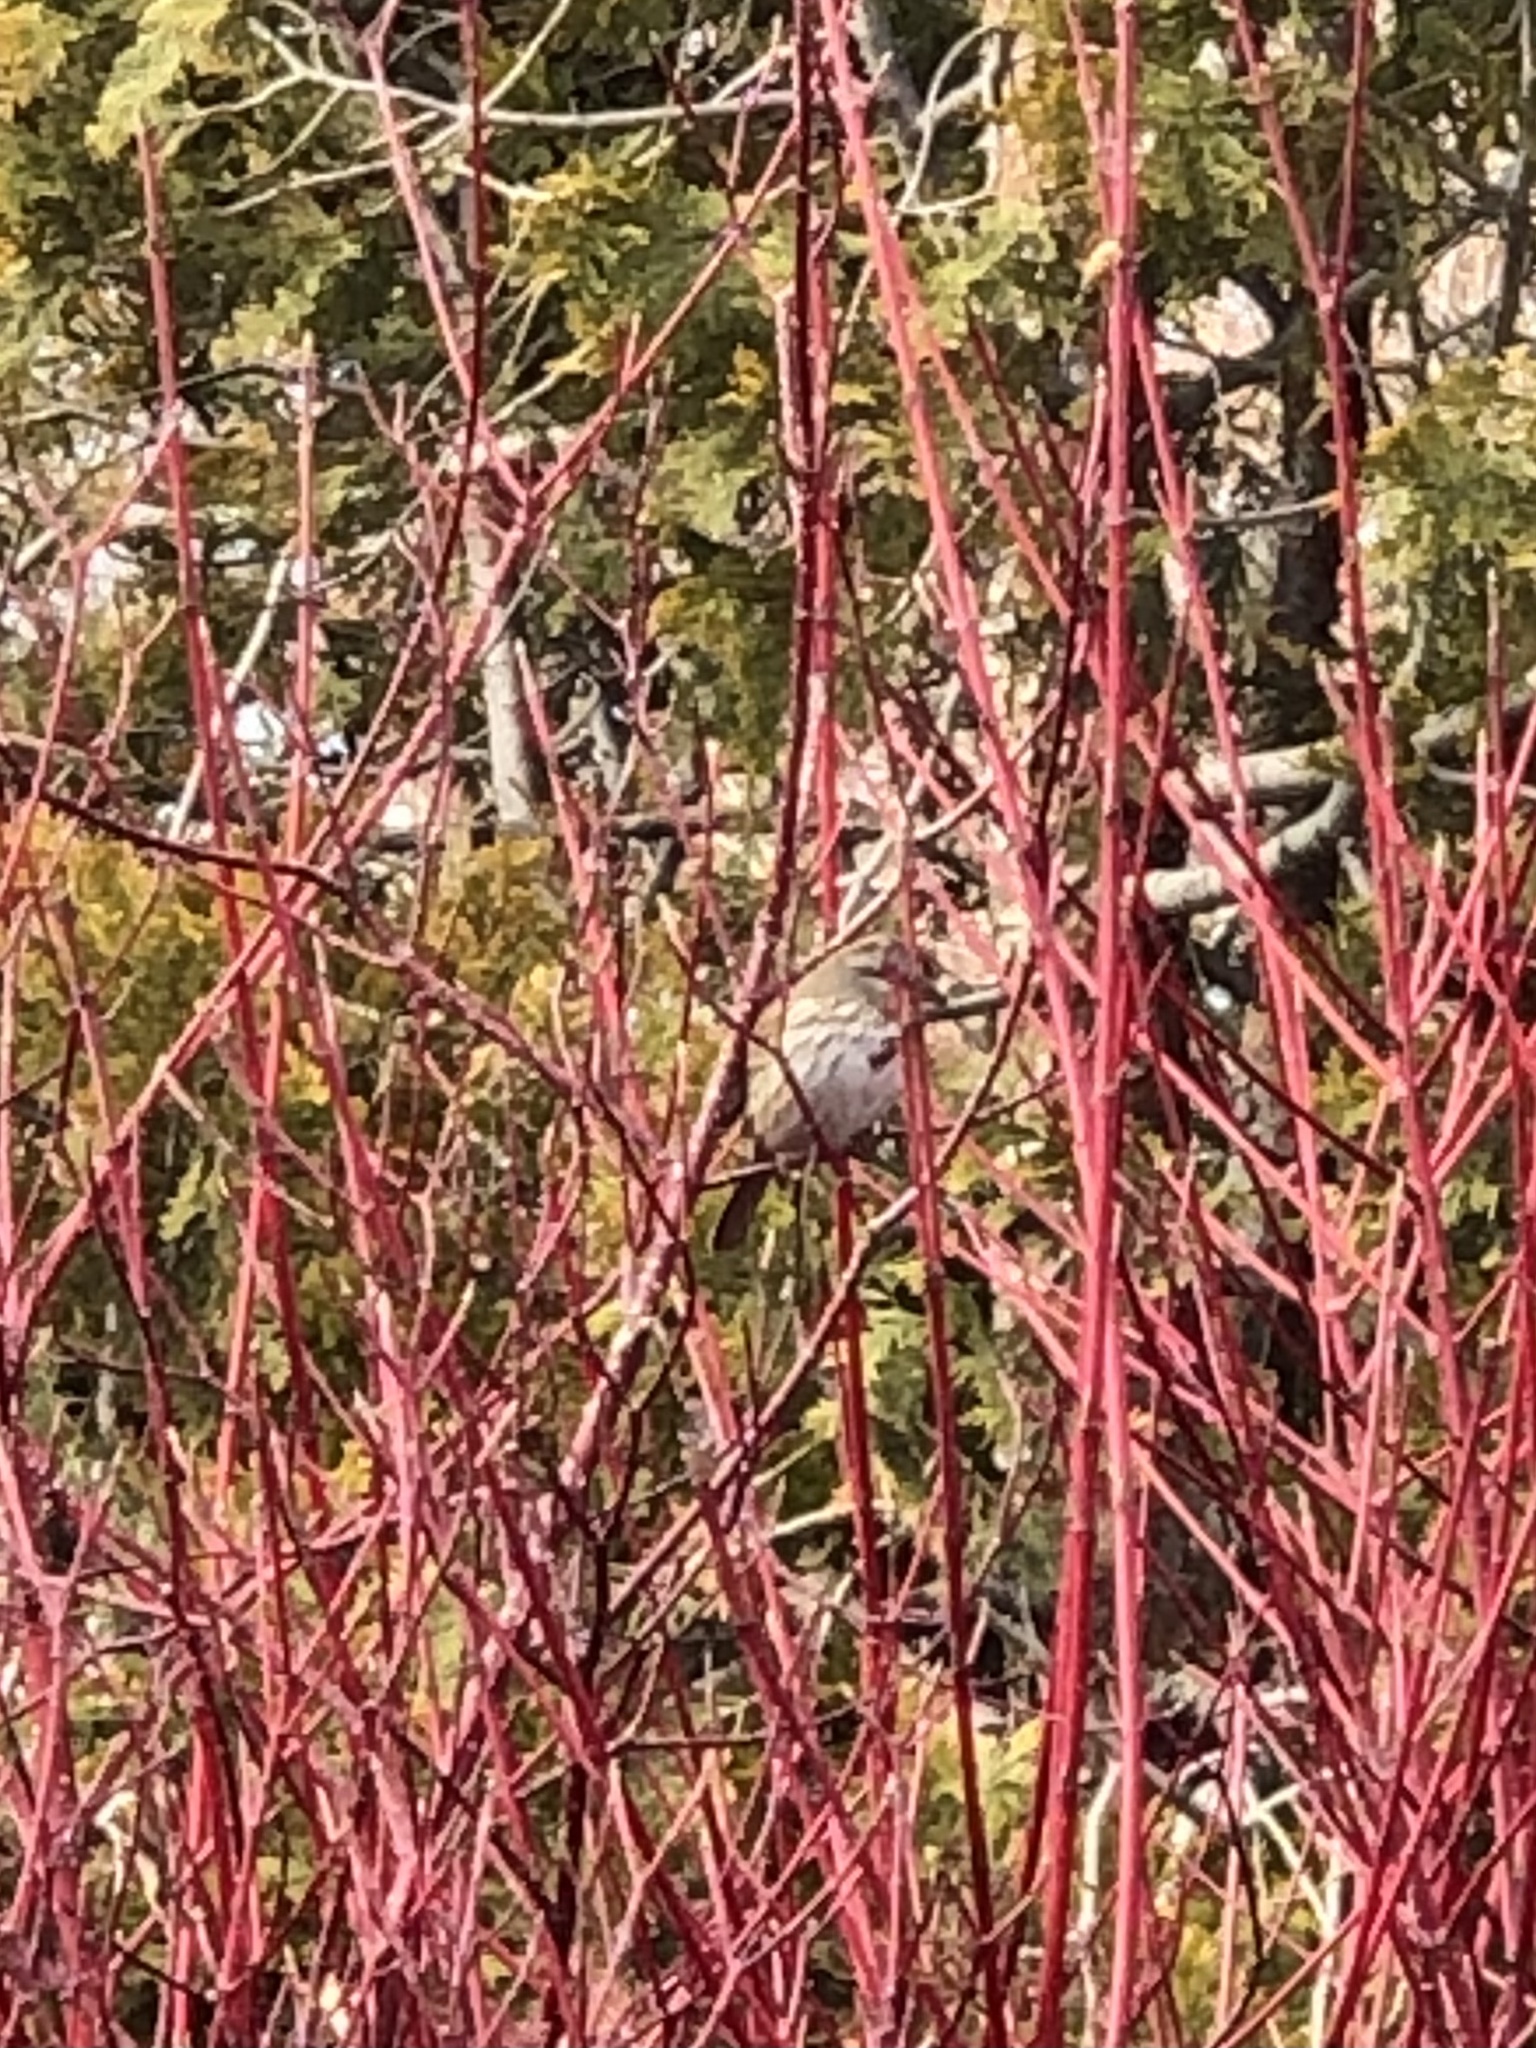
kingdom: Animalia
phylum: Chordata
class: Aves
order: Passeriformes
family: Passerellidae
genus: Melospiza
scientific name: Melospiza melodia
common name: Song sparrow
